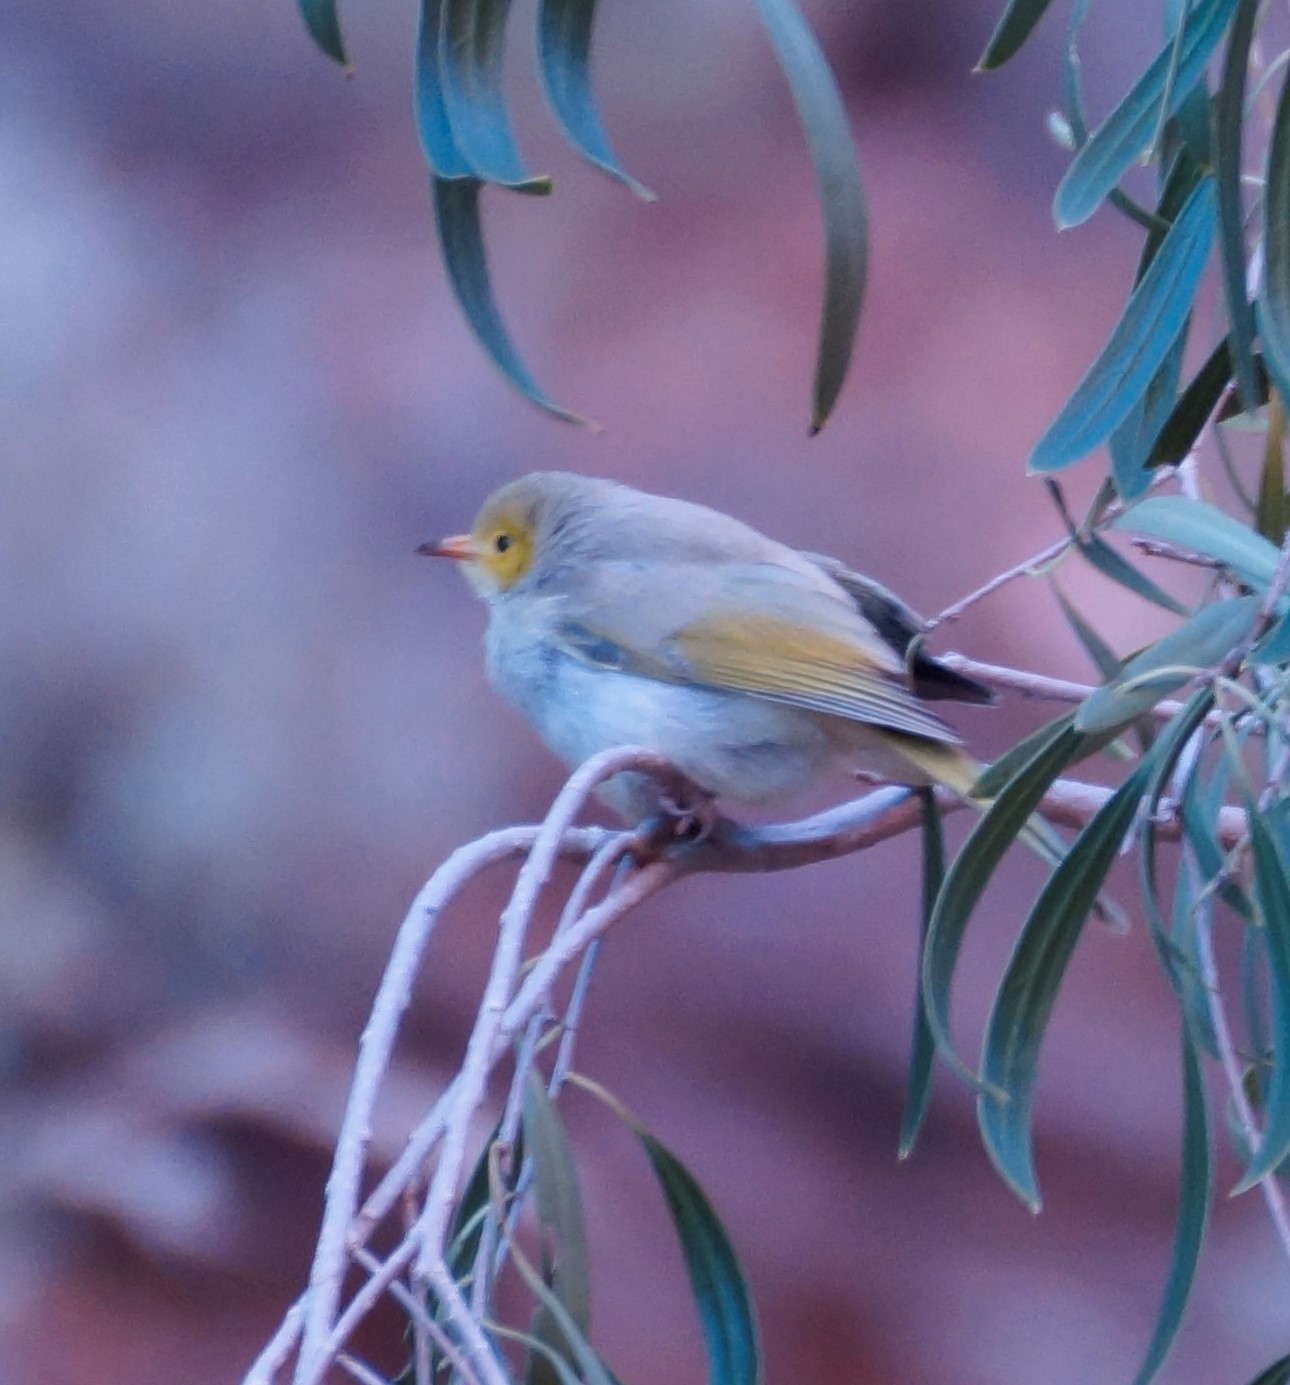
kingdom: Animalia
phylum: Chordata
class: Aves
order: Passeriformes
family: Meliphagidae
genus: Ptilotula
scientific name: Ptilotula penicillata
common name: White-plumed honeyeater
